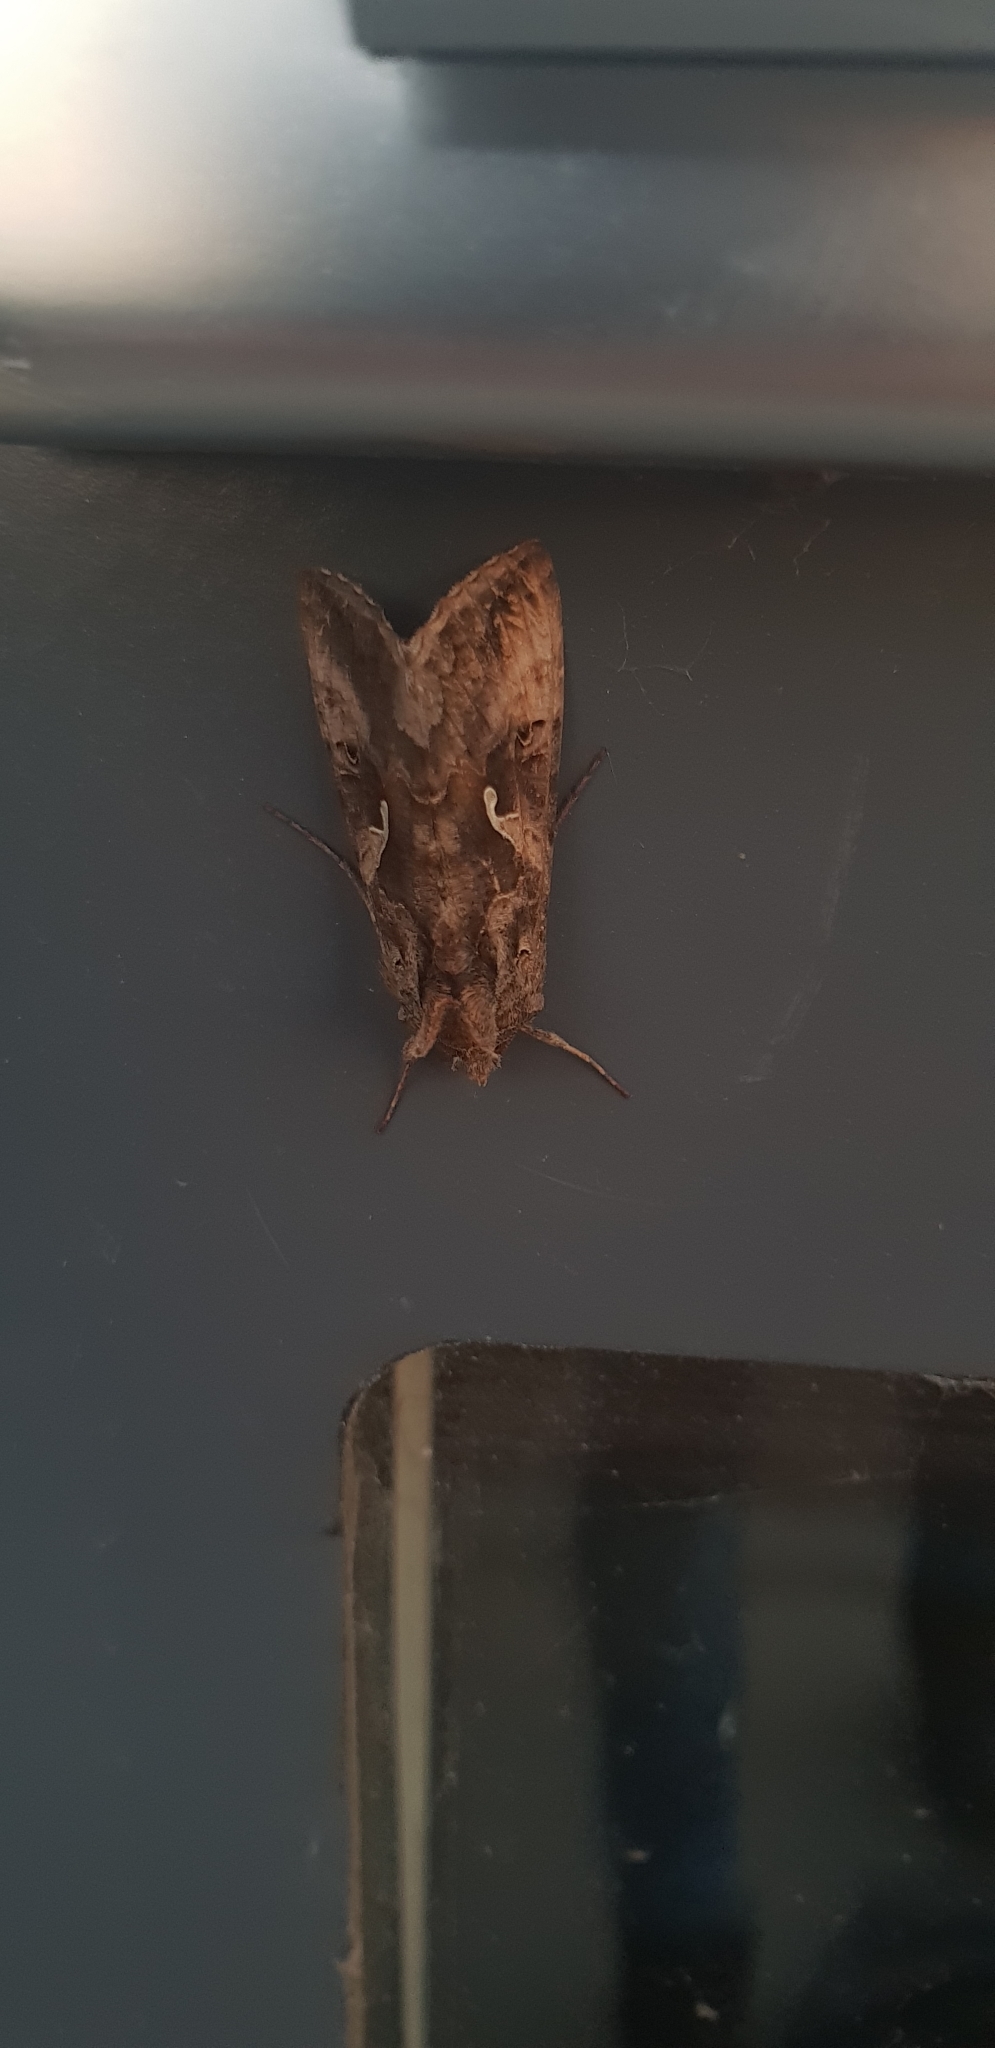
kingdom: Animalia
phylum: Arthropoda
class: Insecta
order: Lepidoptera
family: Noctuidae
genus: Autographa
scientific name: Autographa gamma
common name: Silver y
